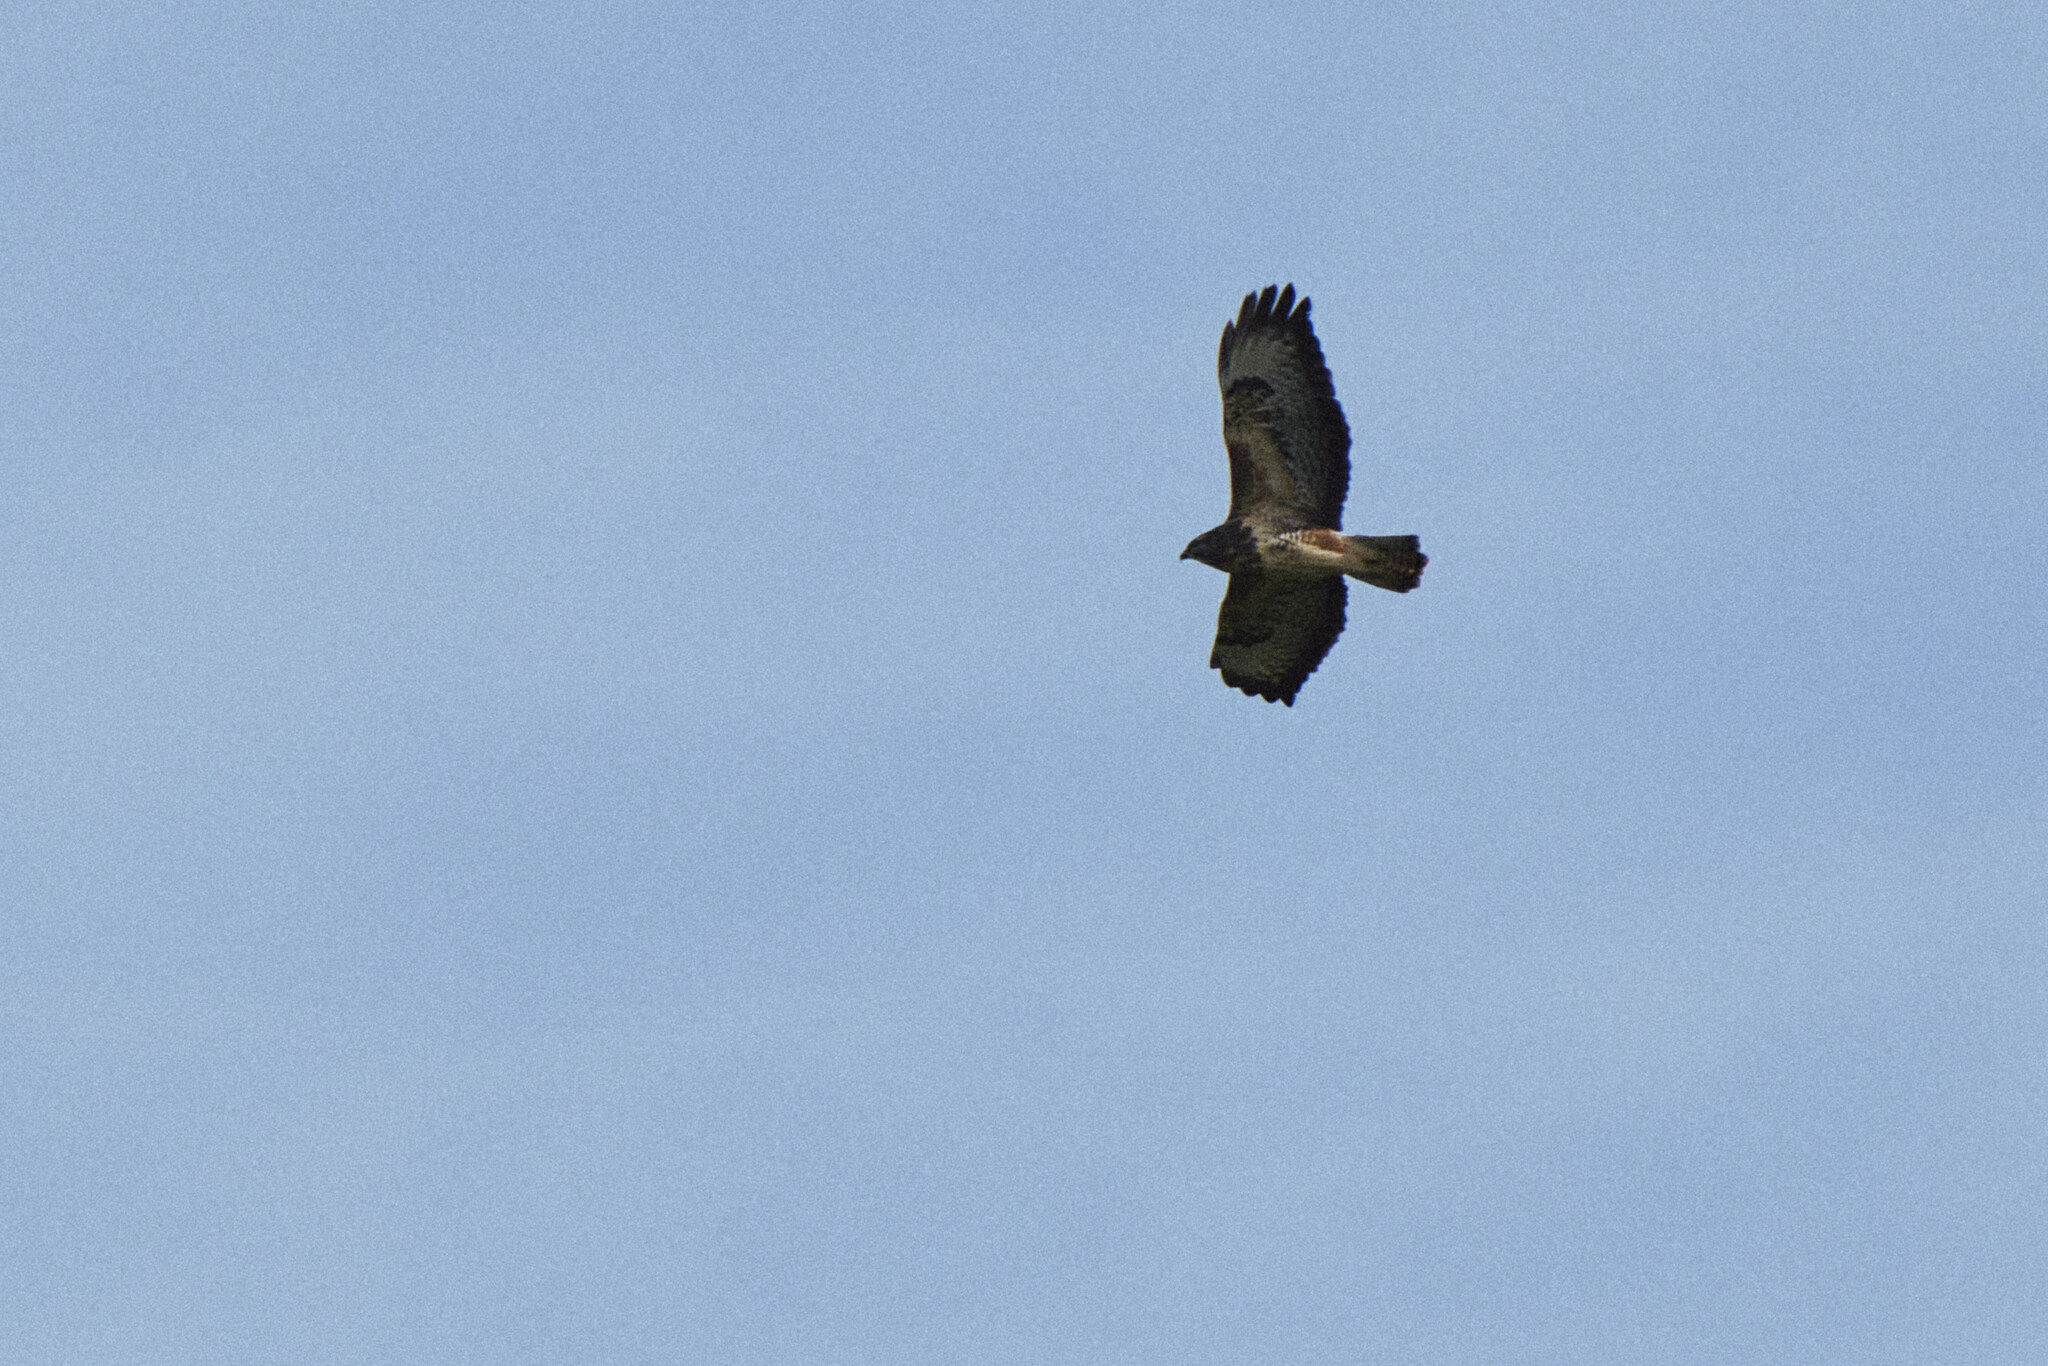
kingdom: Animalia
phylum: Chordata
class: Aves
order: Accipitriformes
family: Accipitridae
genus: Buteo
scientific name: Buteo buteo
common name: Common buzzard
